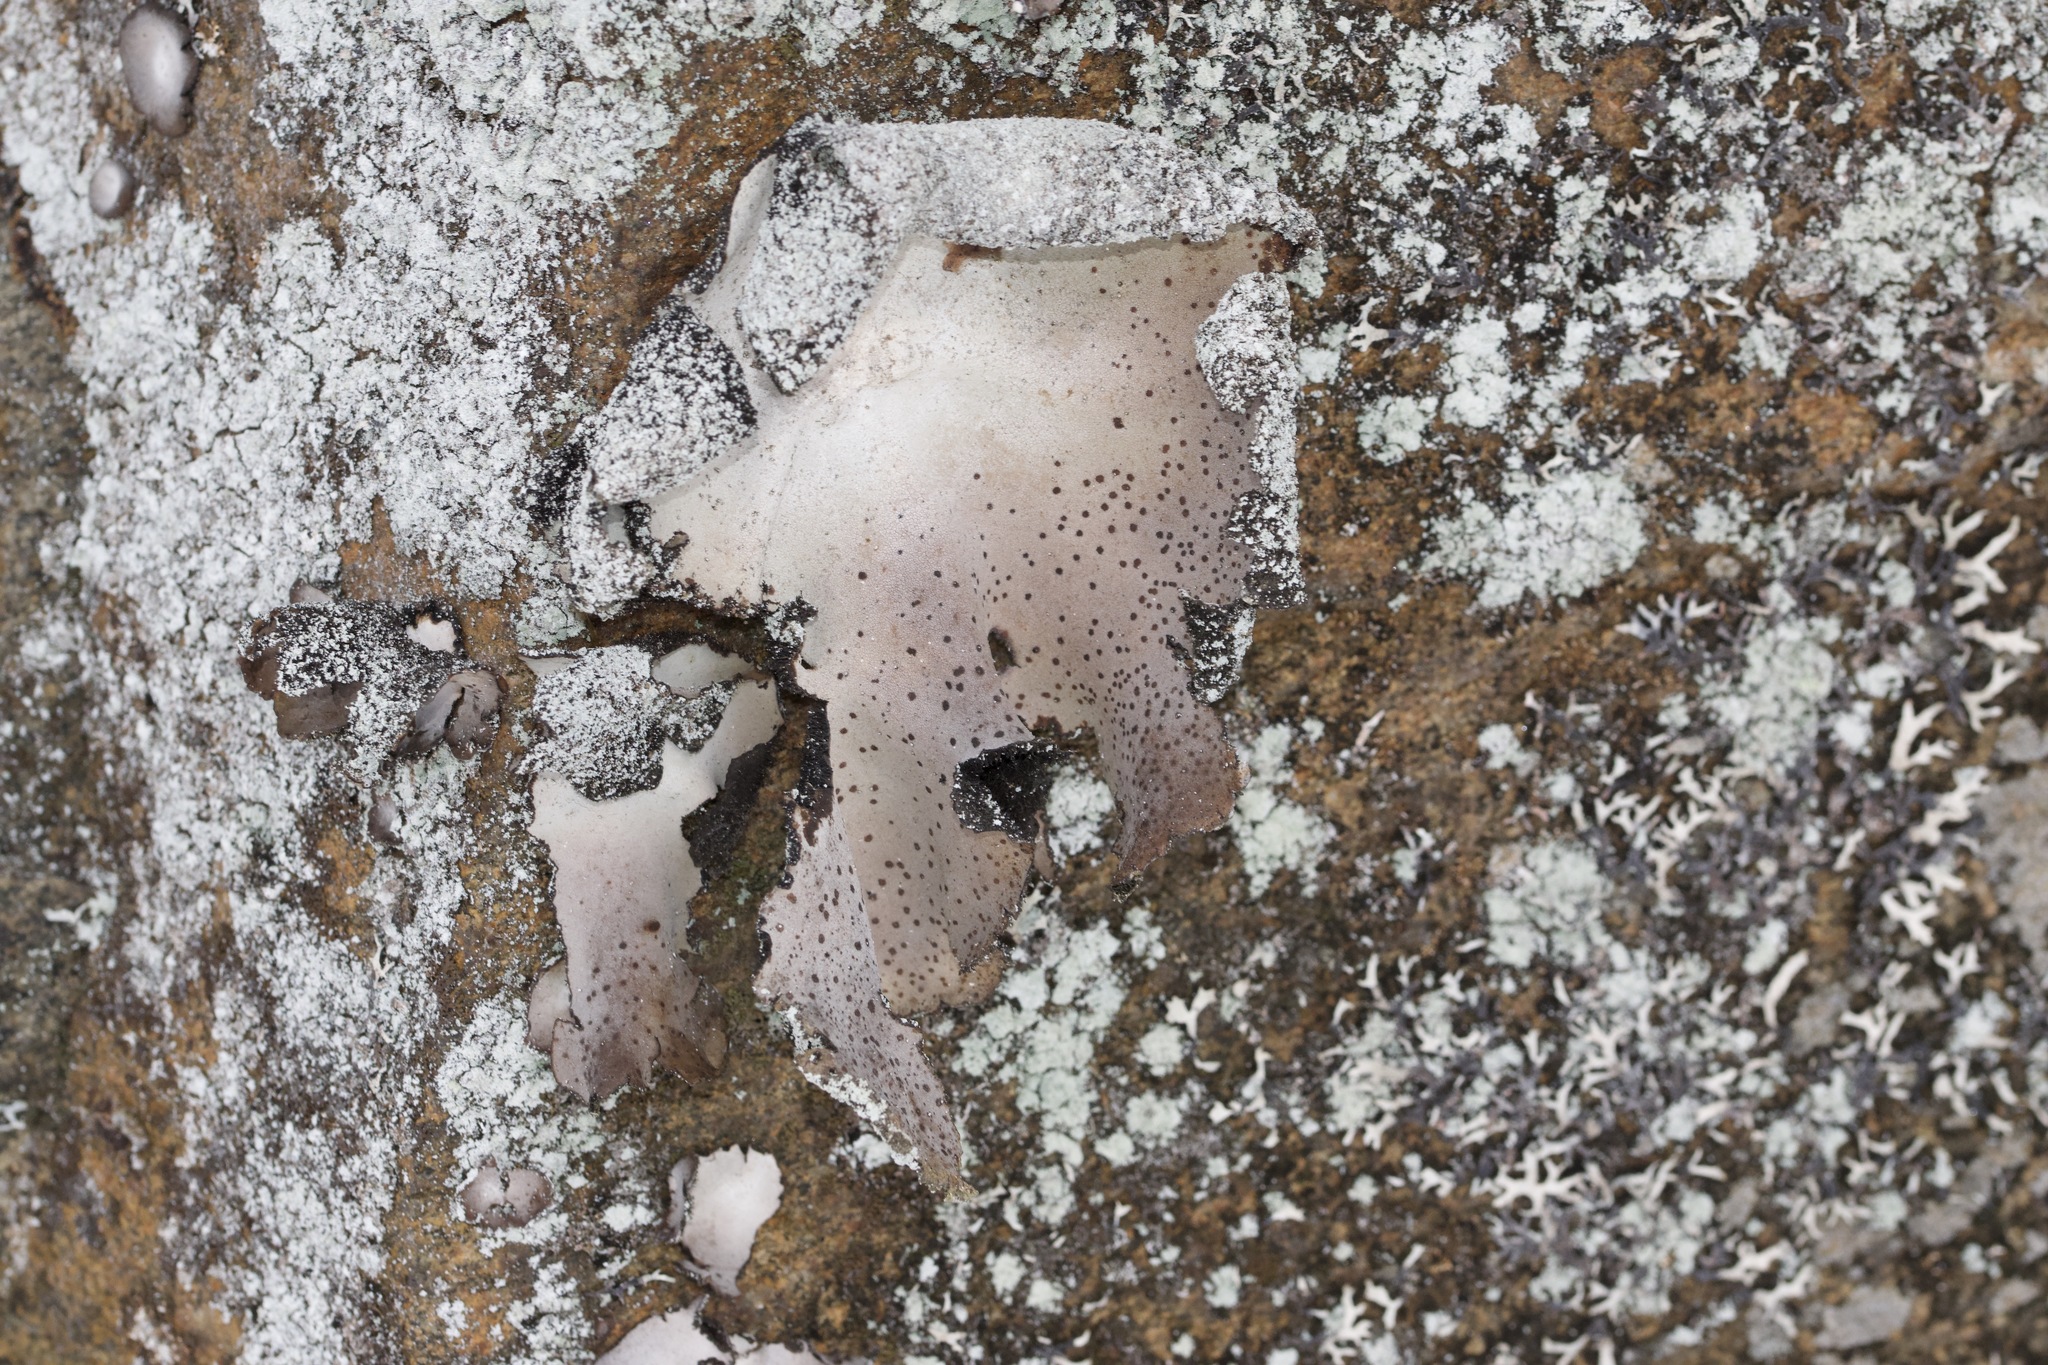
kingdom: Fungi
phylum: Ascomycota
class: Lecanoromycetes
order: Umbilicariales
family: Umbilicariaceae
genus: Umbilicaria
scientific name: Umbilicaria americana
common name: Frosted rock tripe
